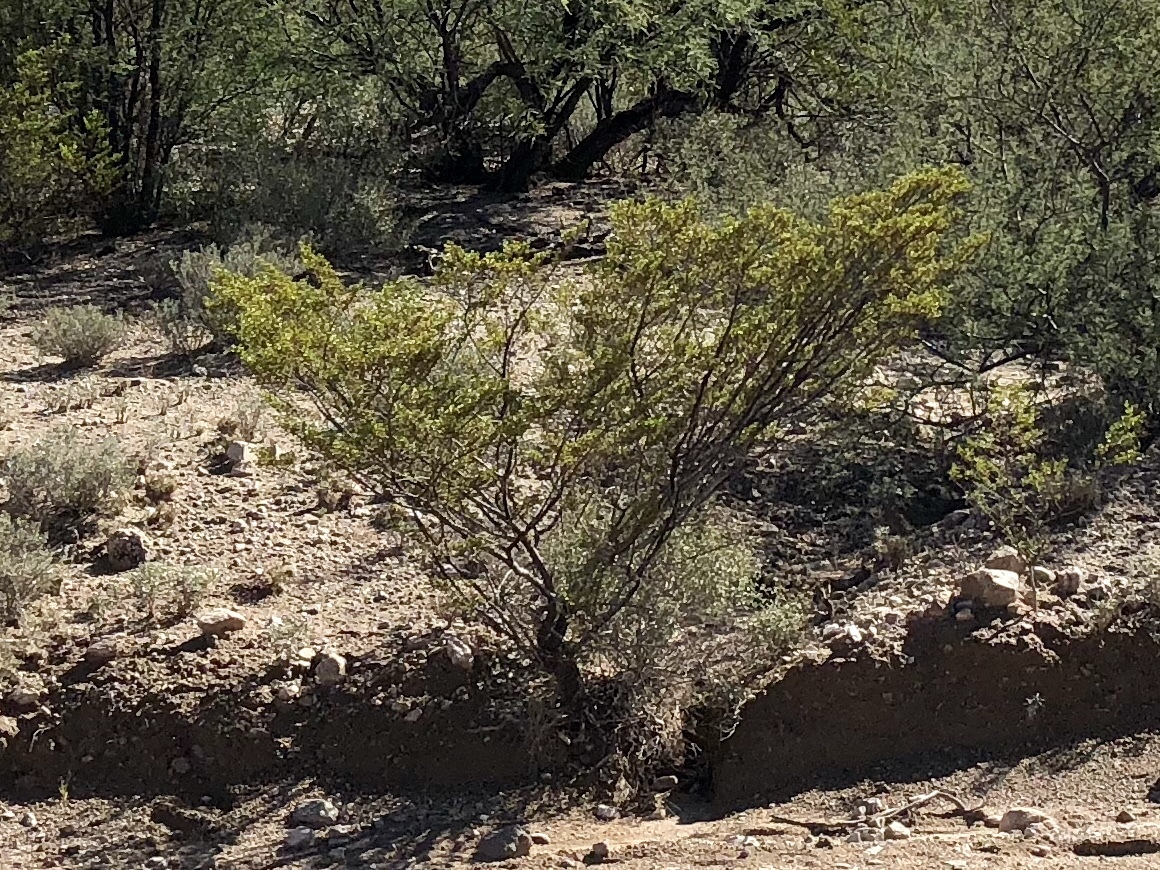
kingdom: Plantae
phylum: Tracheophyta
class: Magnoliopsida
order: Zygophyllales
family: Zygophyllaceae
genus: Larrea
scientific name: Larrea tridentata
